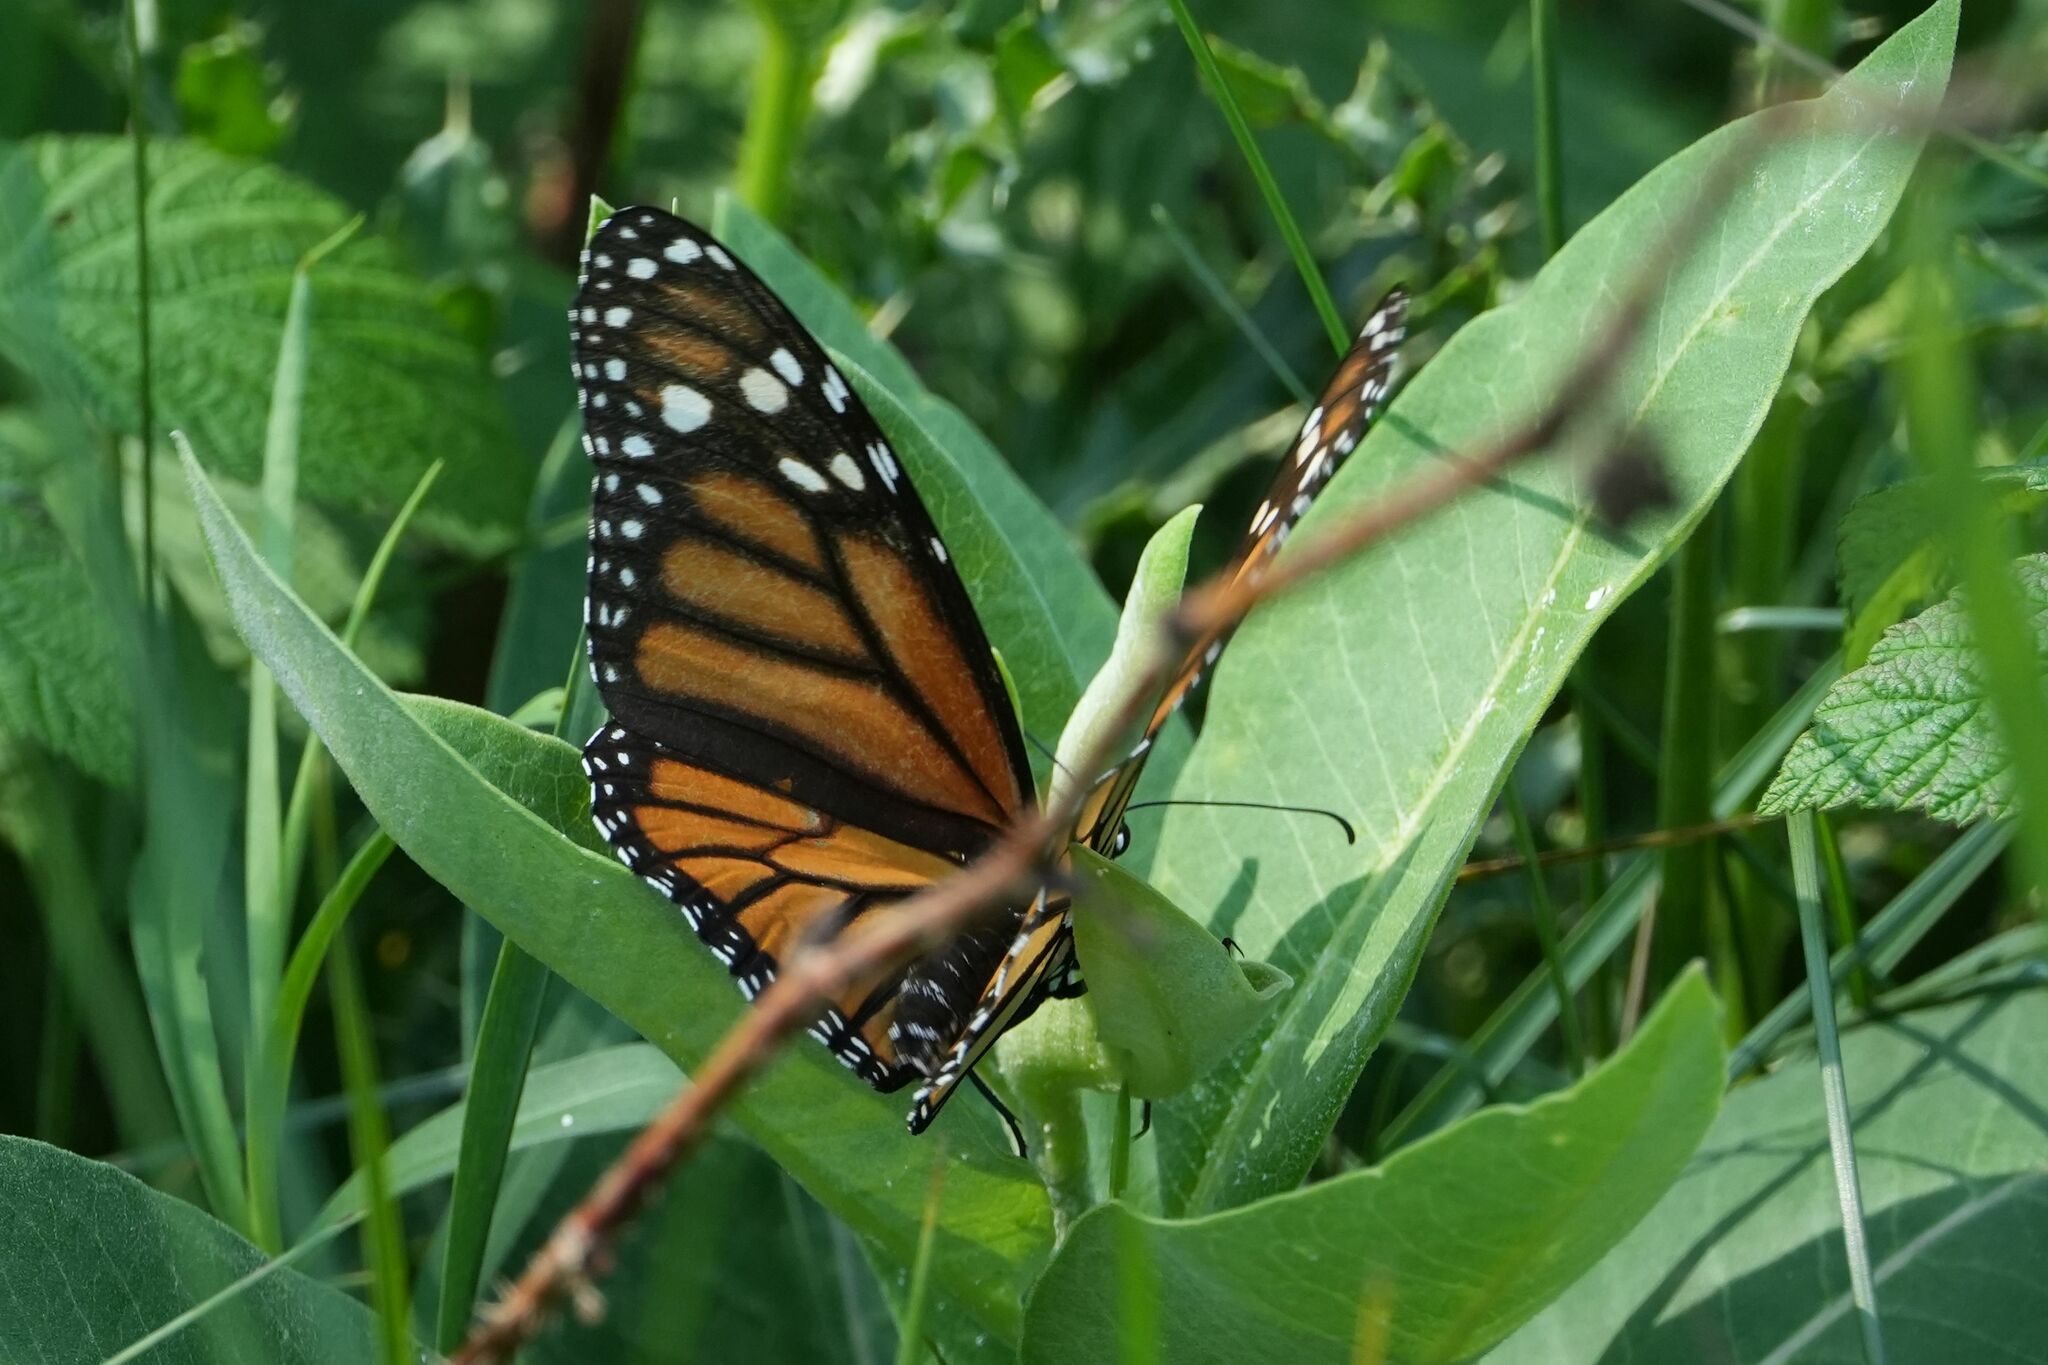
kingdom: Animalia
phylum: Arthropoda
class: Insecta
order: Lepidoptera
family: Nymphalidae
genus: Danaus
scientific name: Danaus plexippus
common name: Monarch
